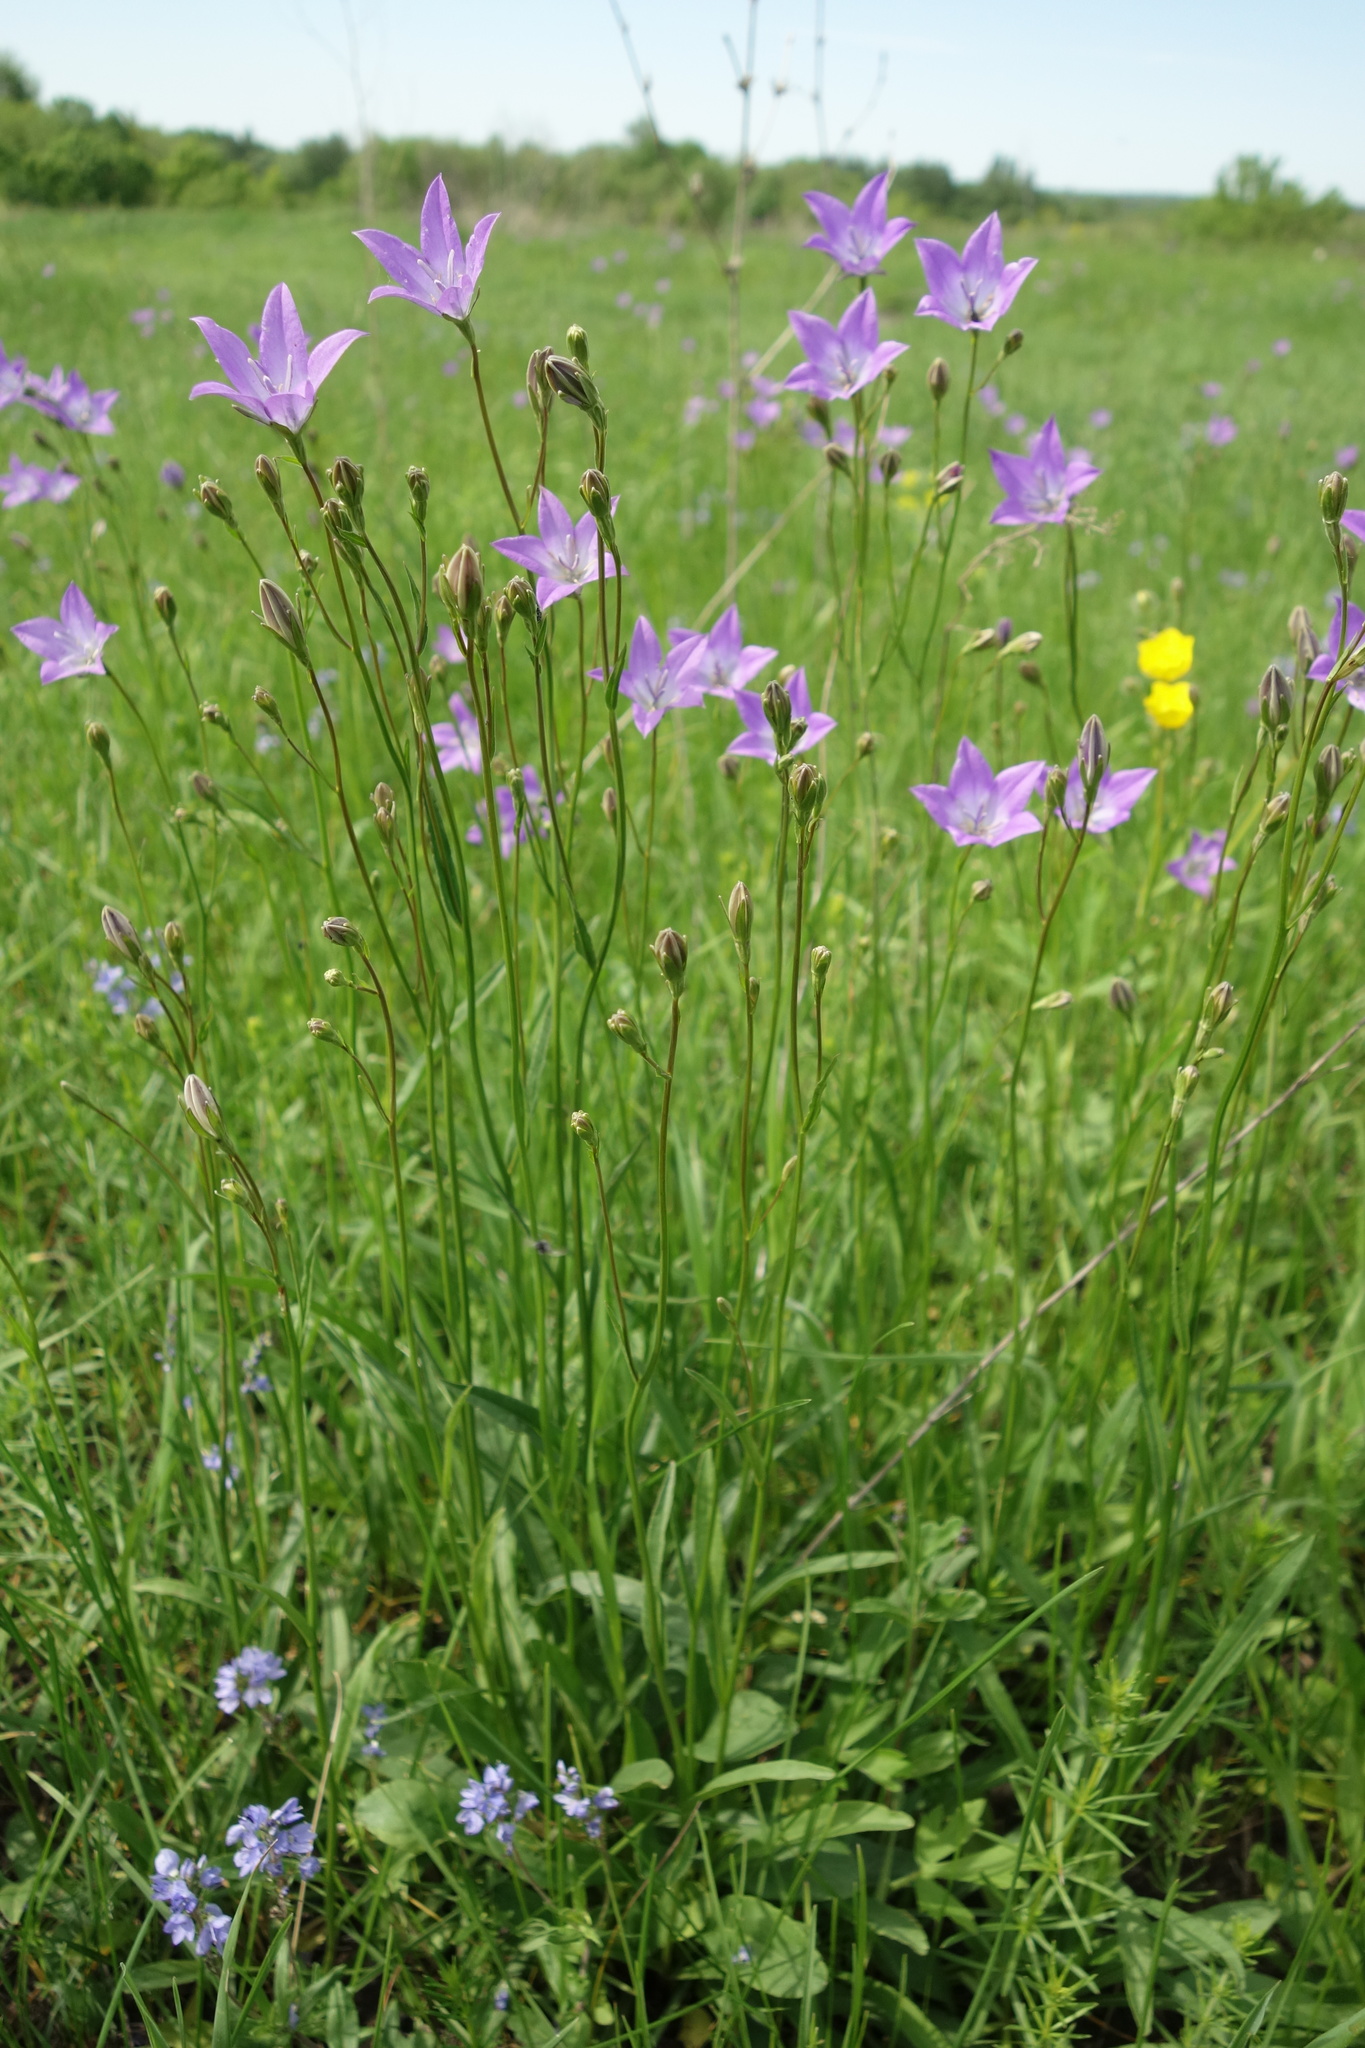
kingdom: Plantae
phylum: Tracheophyta
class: Magnoliopsida
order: Asterales
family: Campanulaceae
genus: Campanula
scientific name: Campanula stevenii
